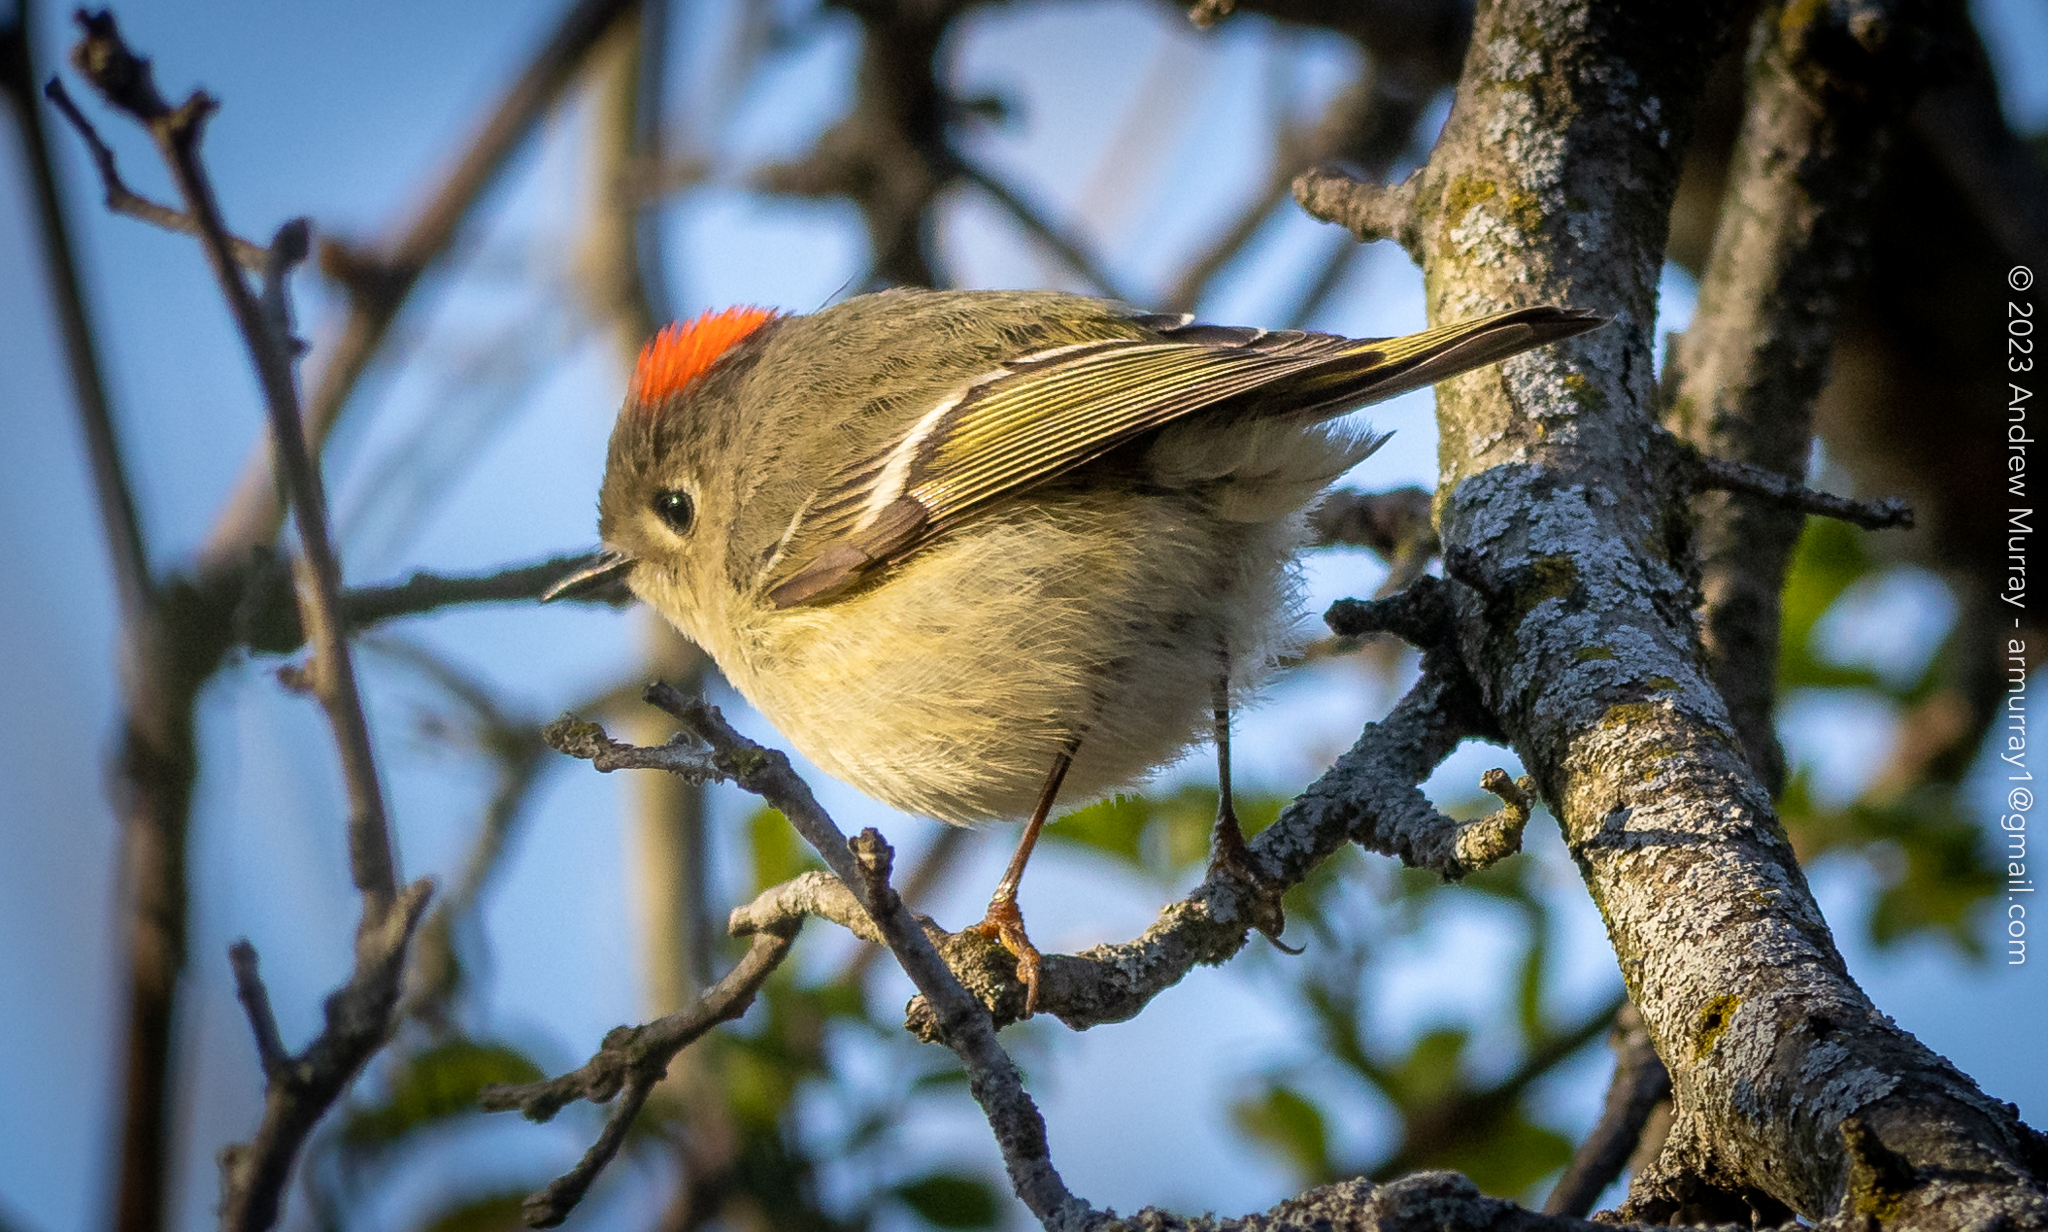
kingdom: Animalia
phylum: Chordata
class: Aves
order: Passeriformes
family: Regulidae
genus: Regulus
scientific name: Regulus calendula
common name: Ruby-crowned kinglet
